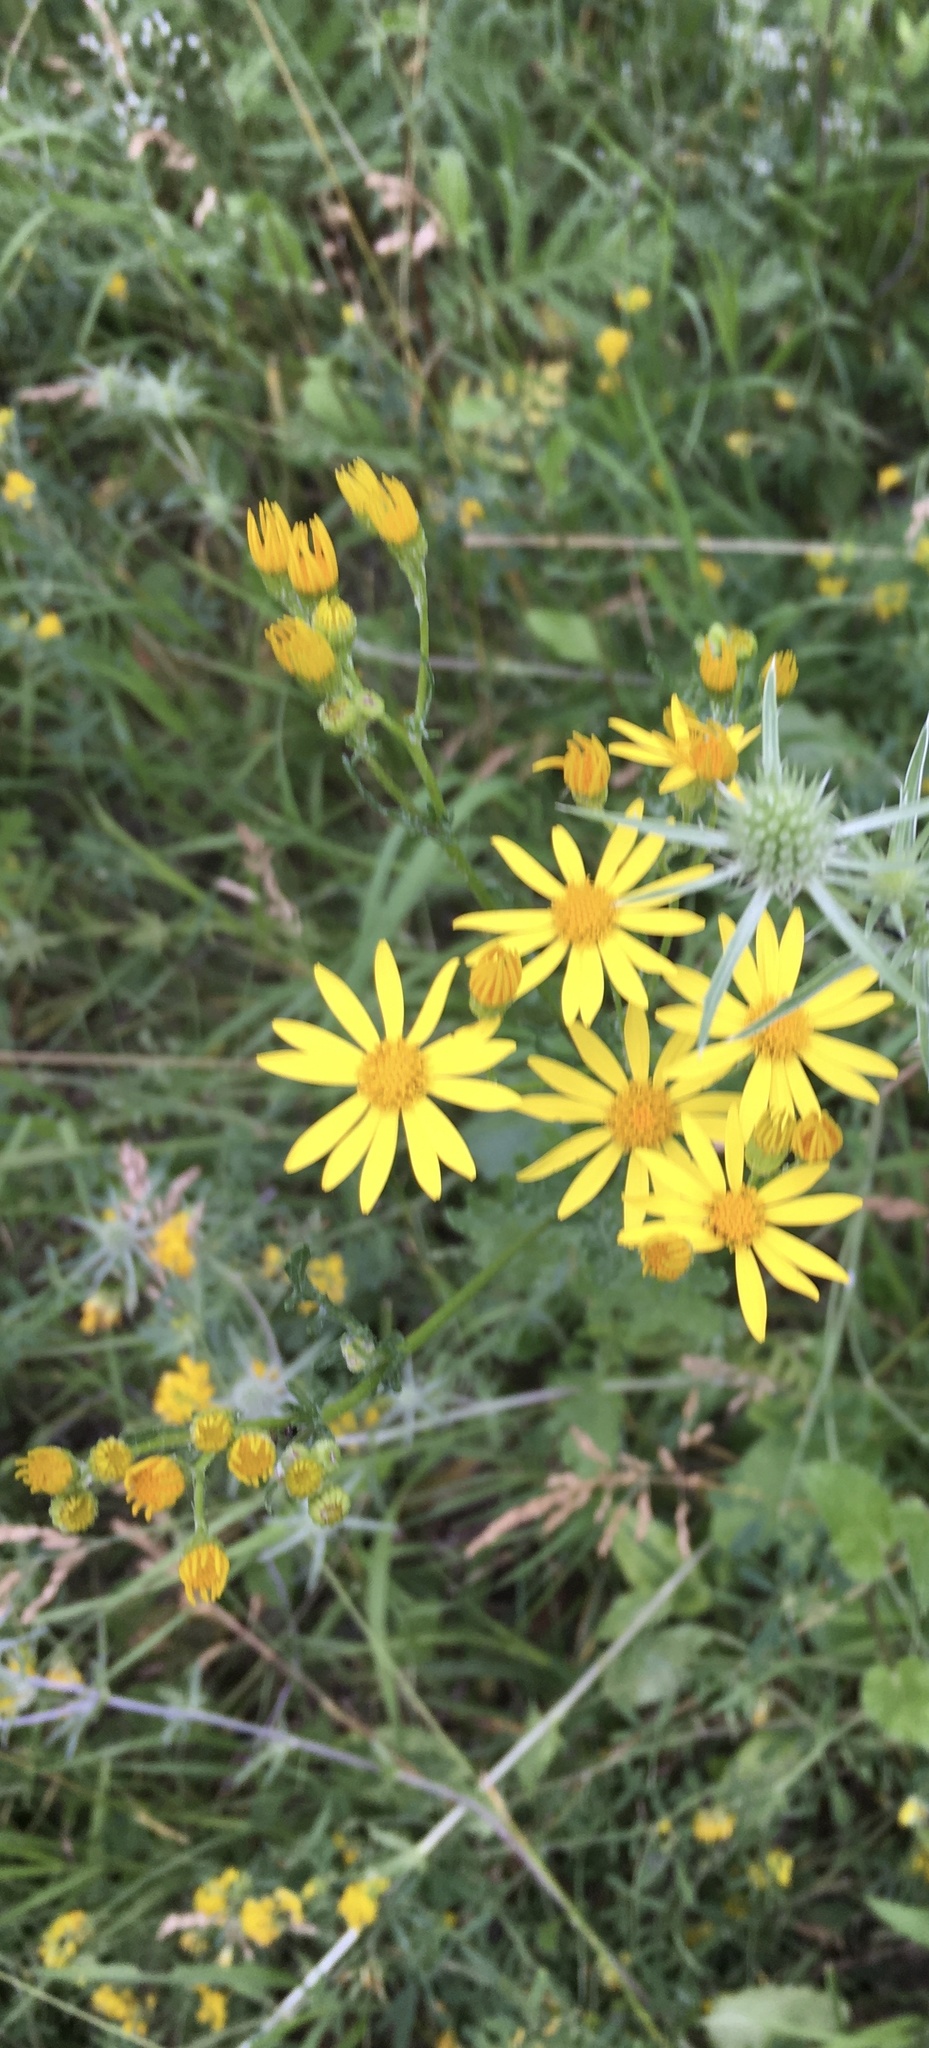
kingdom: Plantae
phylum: Tracheophyta
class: Magnoliopsida
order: Asterales
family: Asteraceae
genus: Jacobaea
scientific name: Jacobaea vulgaris
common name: Stinking willie
